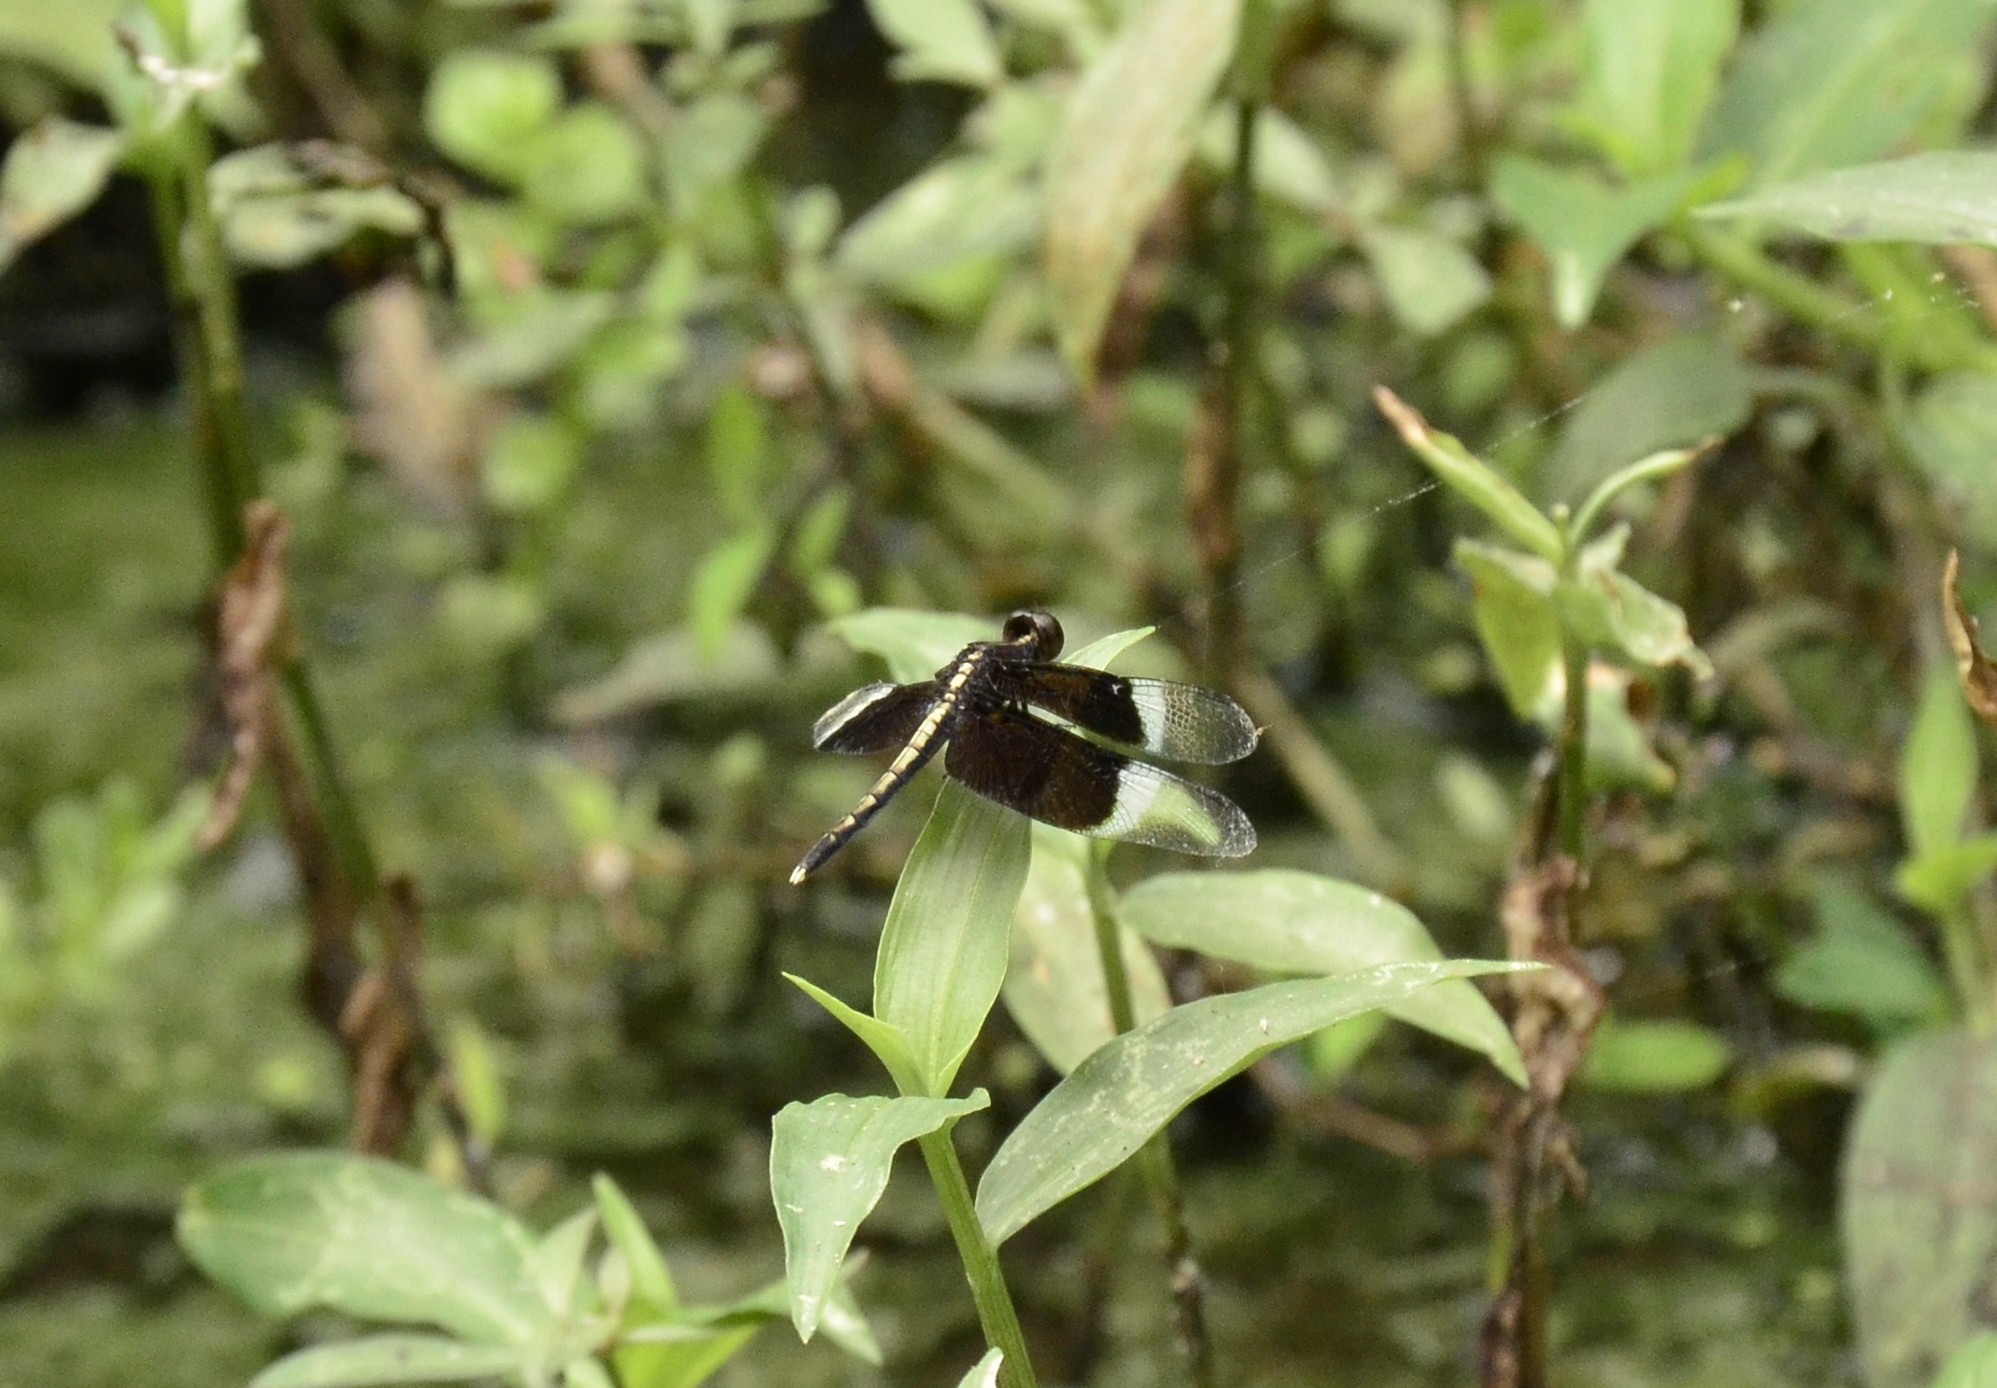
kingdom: Animalia
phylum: Arthropoda
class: Insecta
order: Odonata
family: Libellulidae
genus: Neurothemis
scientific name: Neurothemis tullia
